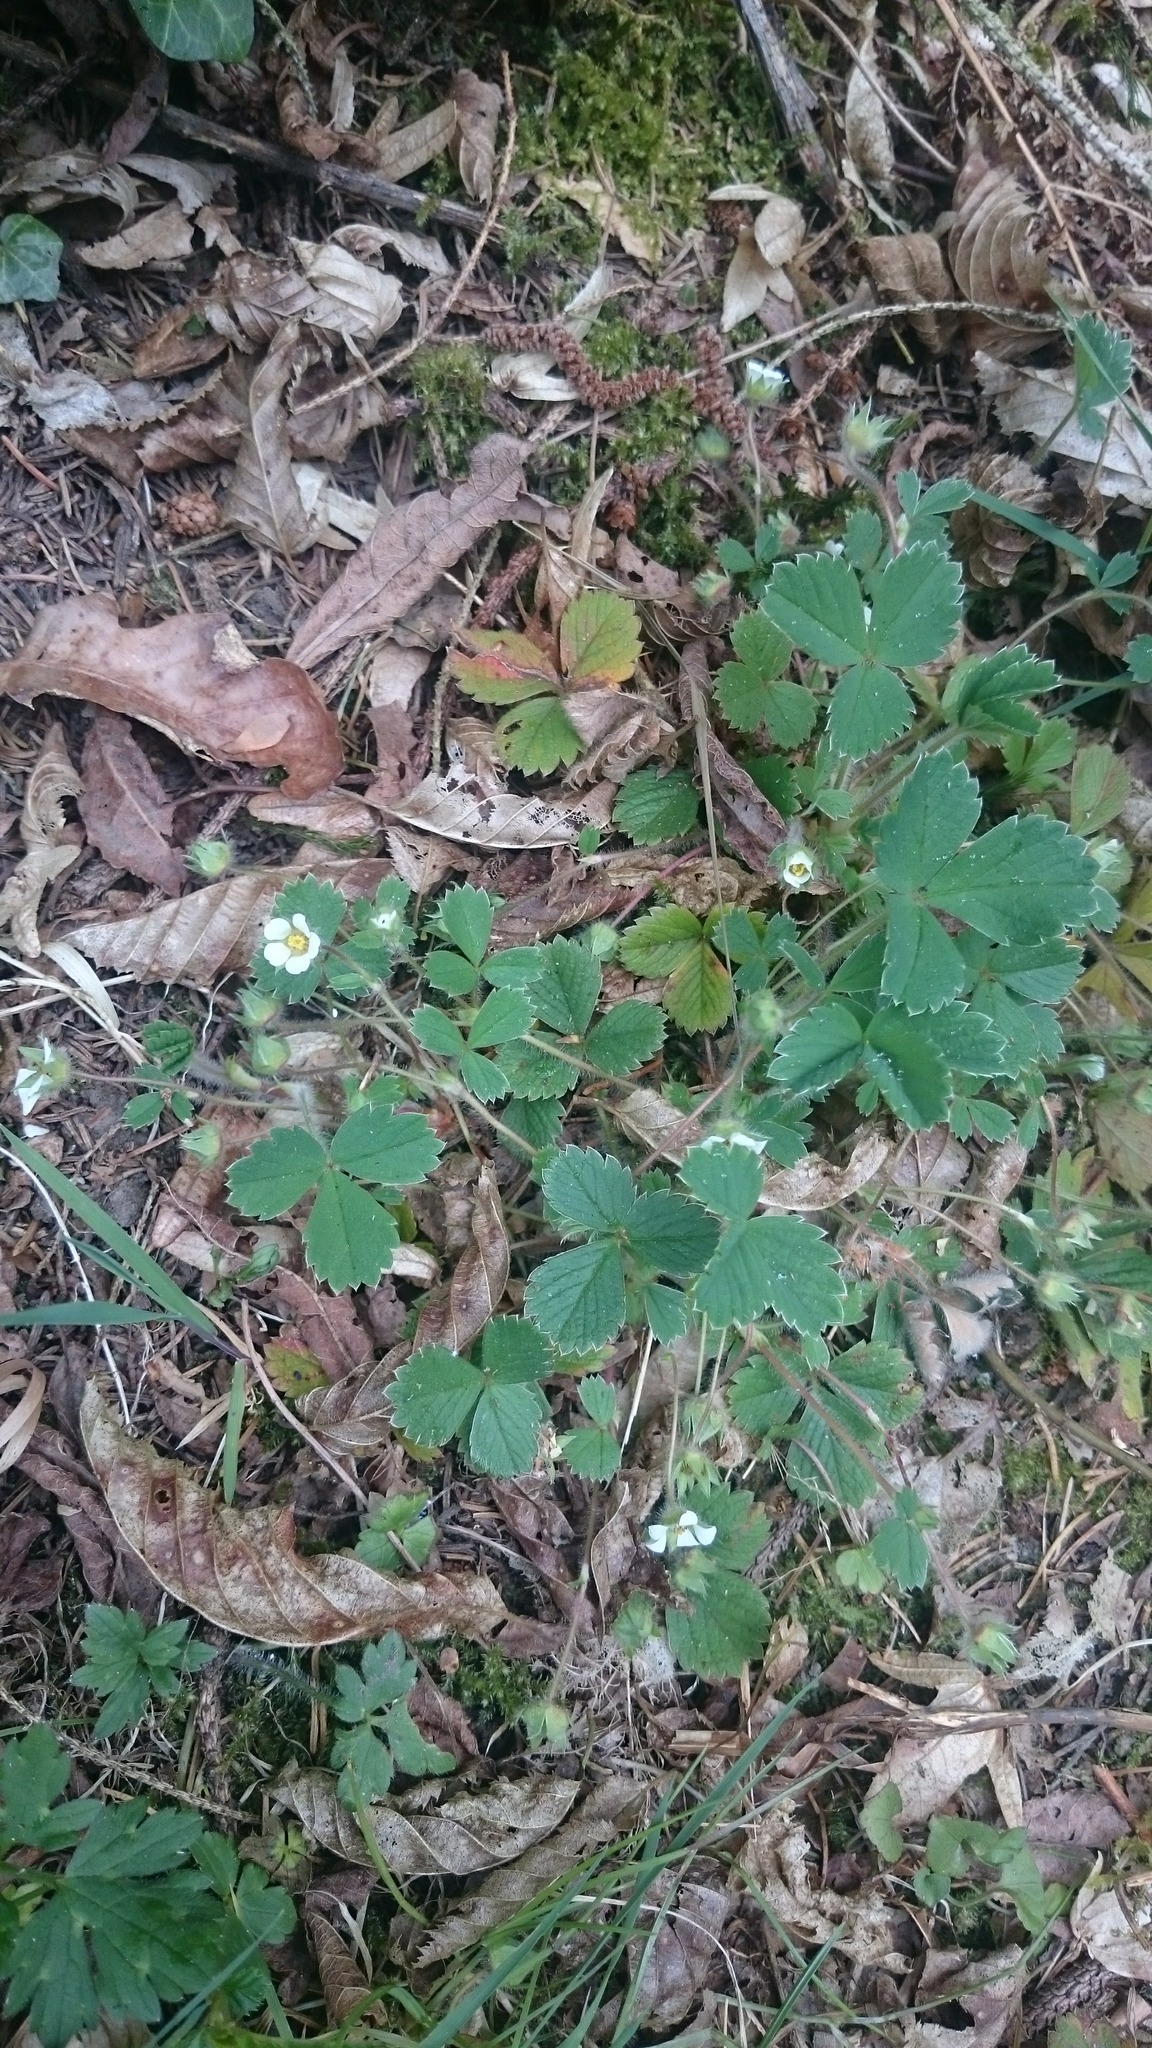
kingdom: Plantae
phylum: Tracheophyta
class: Magnoliopsida
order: Rosales
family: Rosaceae
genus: Potentilla
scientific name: Potentilla sterilis
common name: Barren strawberry
